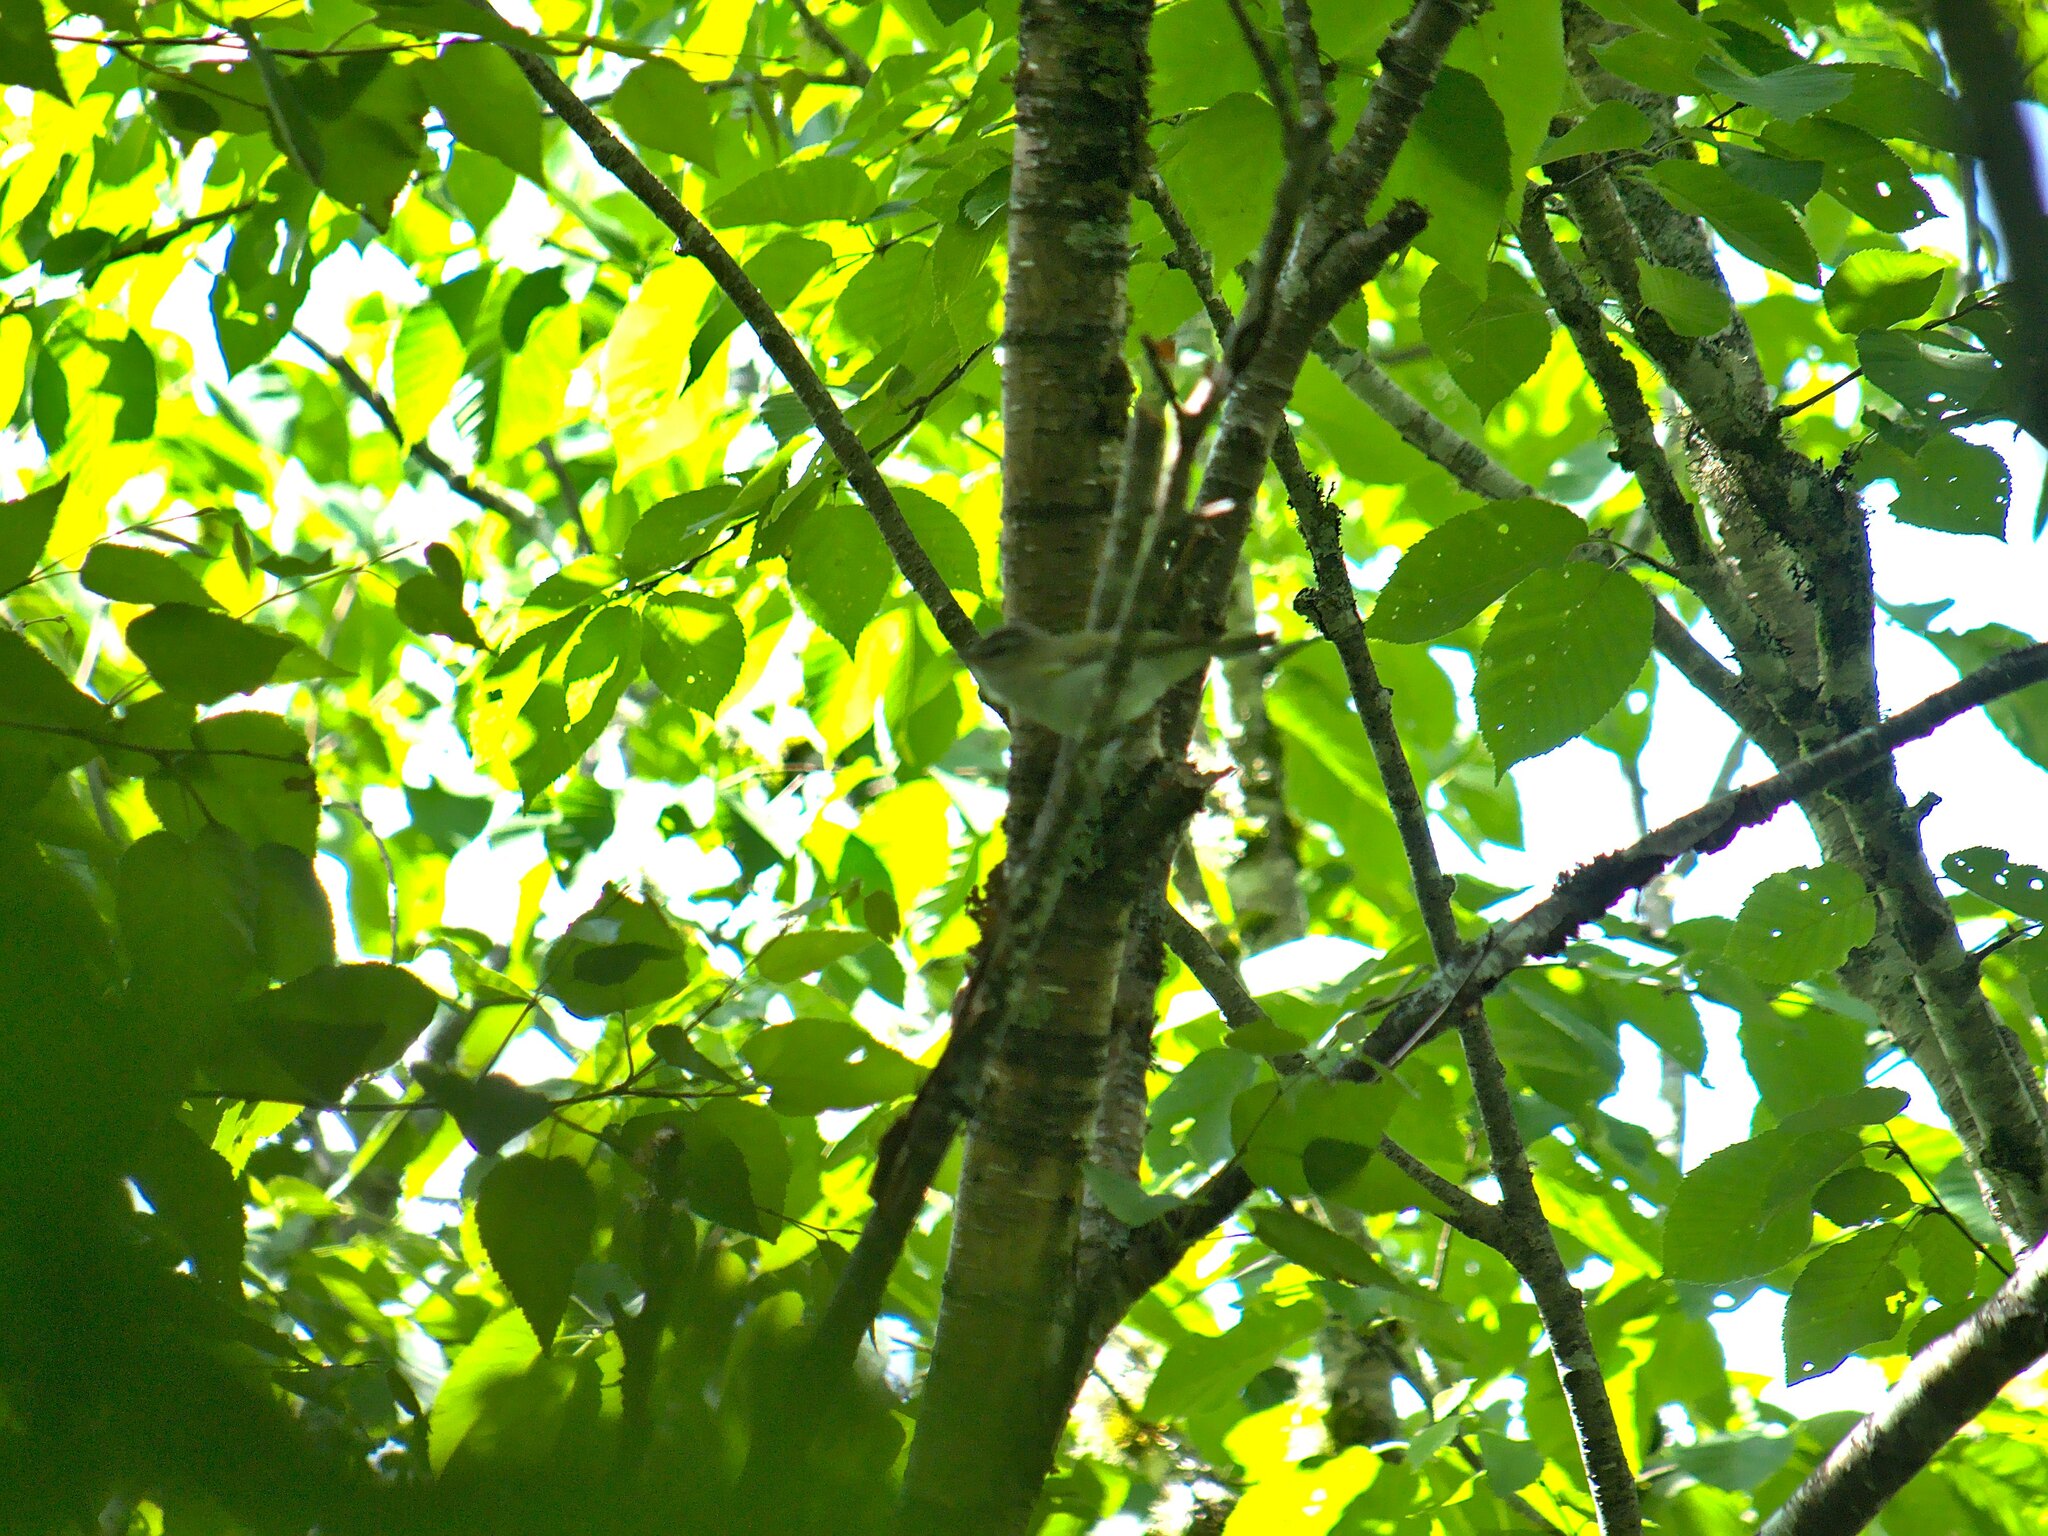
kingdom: Animalia
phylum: Chordata
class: Aves
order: Passeriformes
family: Vireonidae
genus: Vireo
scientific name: Vireo olivaceus
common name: Red-eyed vireo
